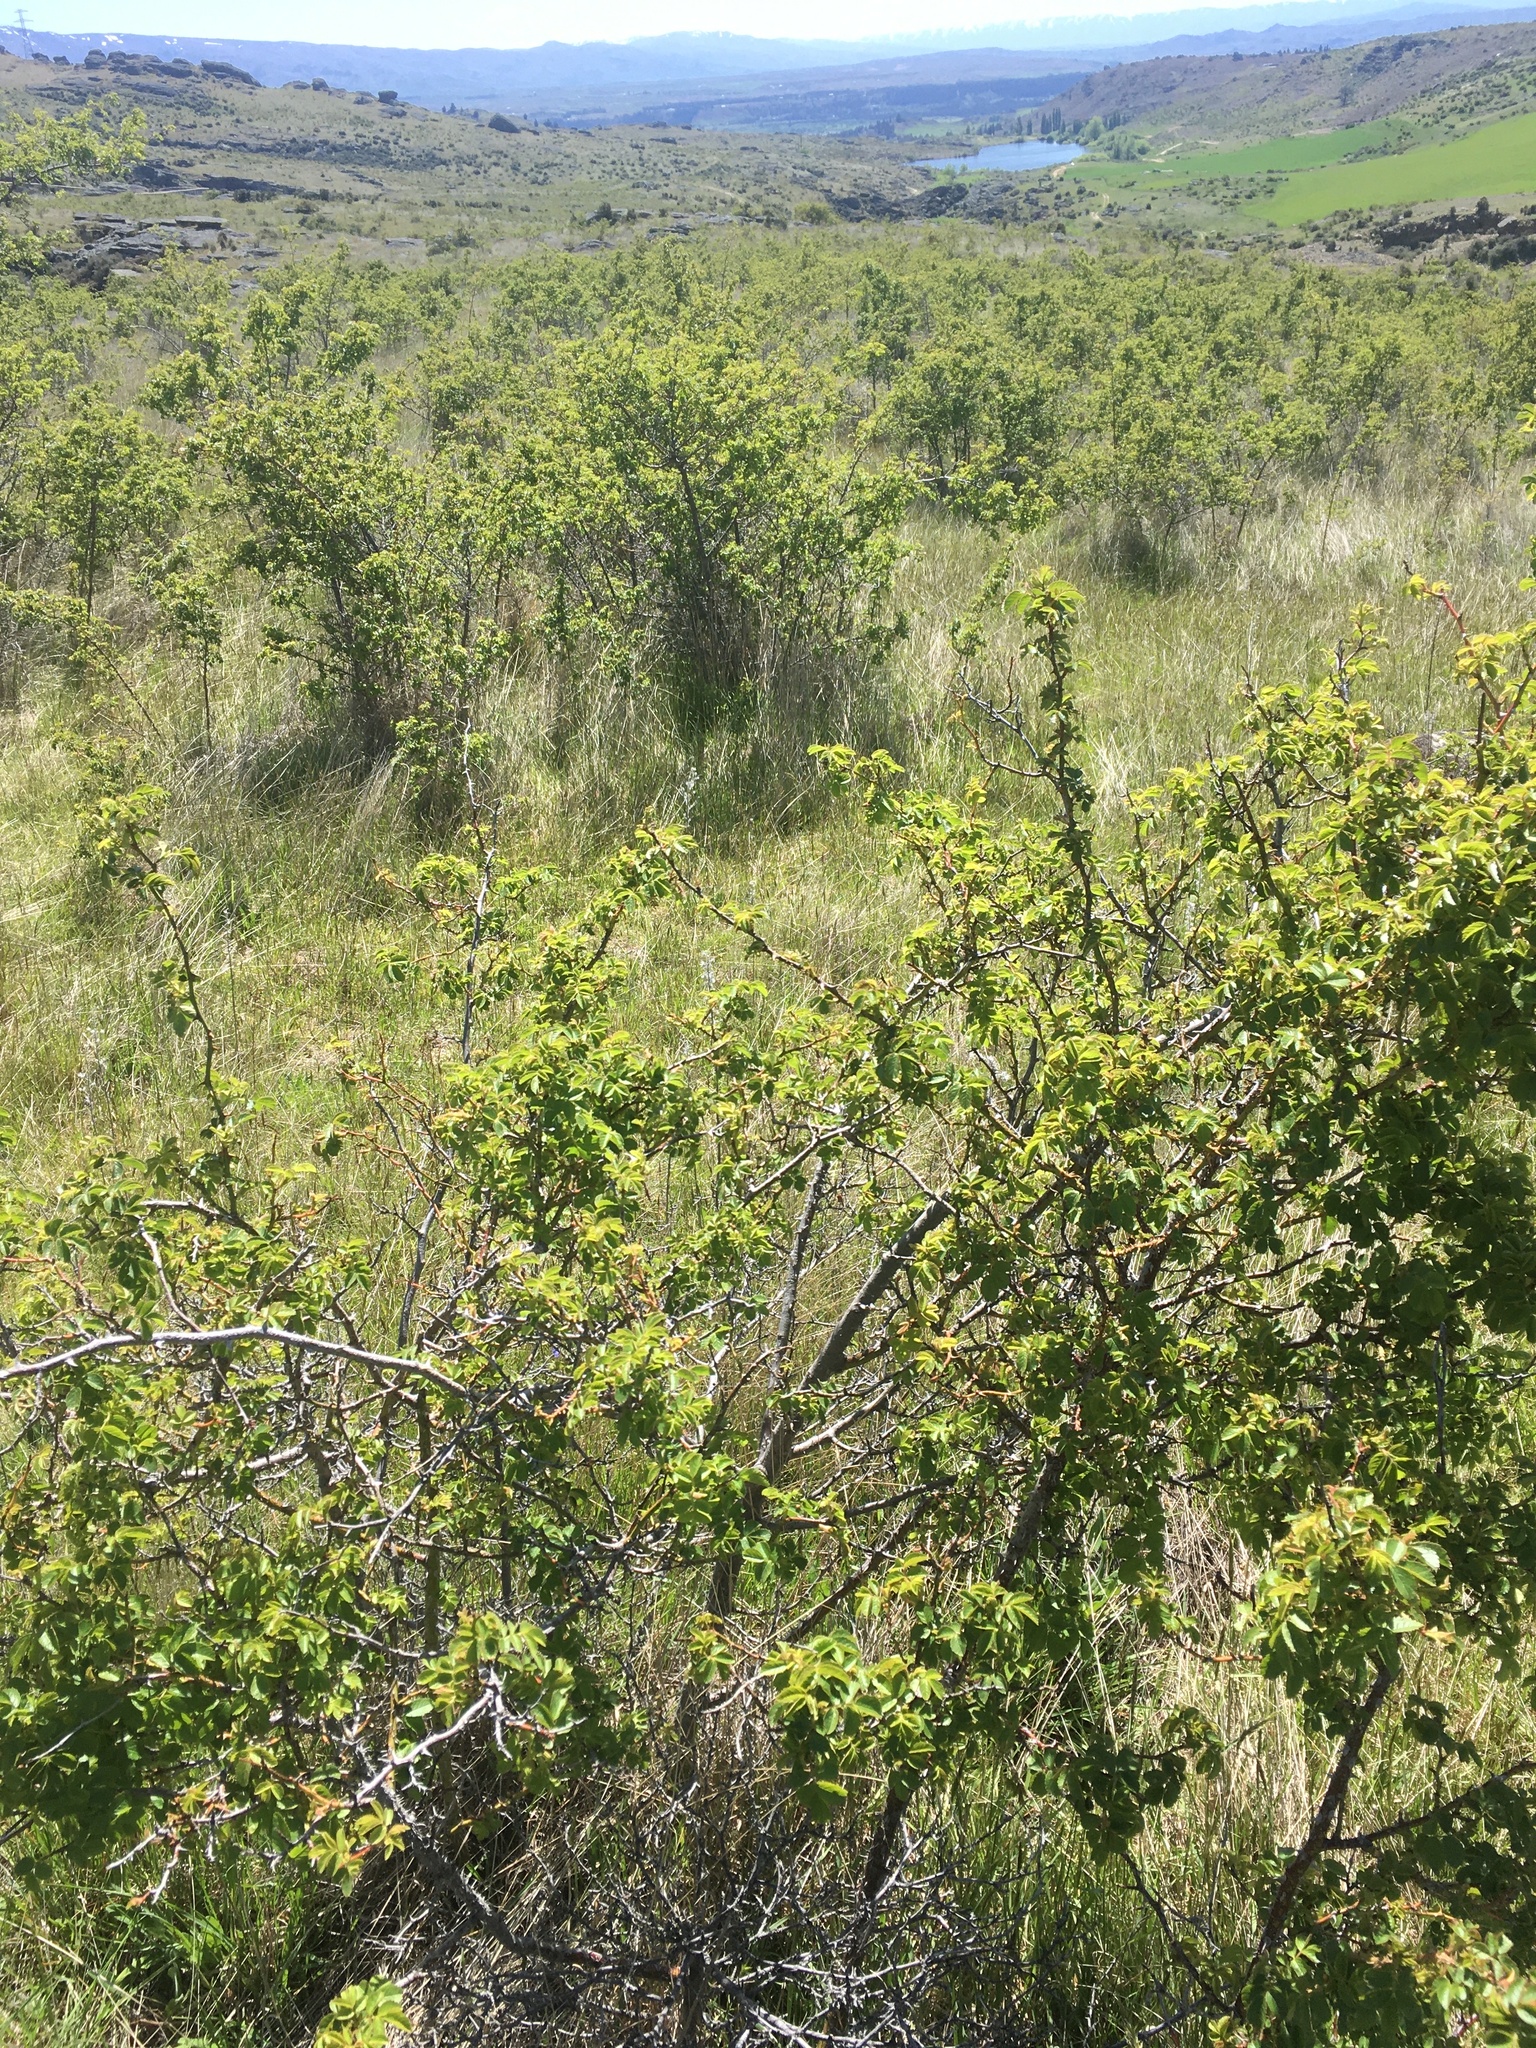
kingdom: Plantae
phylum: Tracheophyta
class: Magnoliopsida
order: Rosales
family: Rosaceae
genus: Rosa
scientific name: Rosa rubiginosa
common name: Sweet-briar
